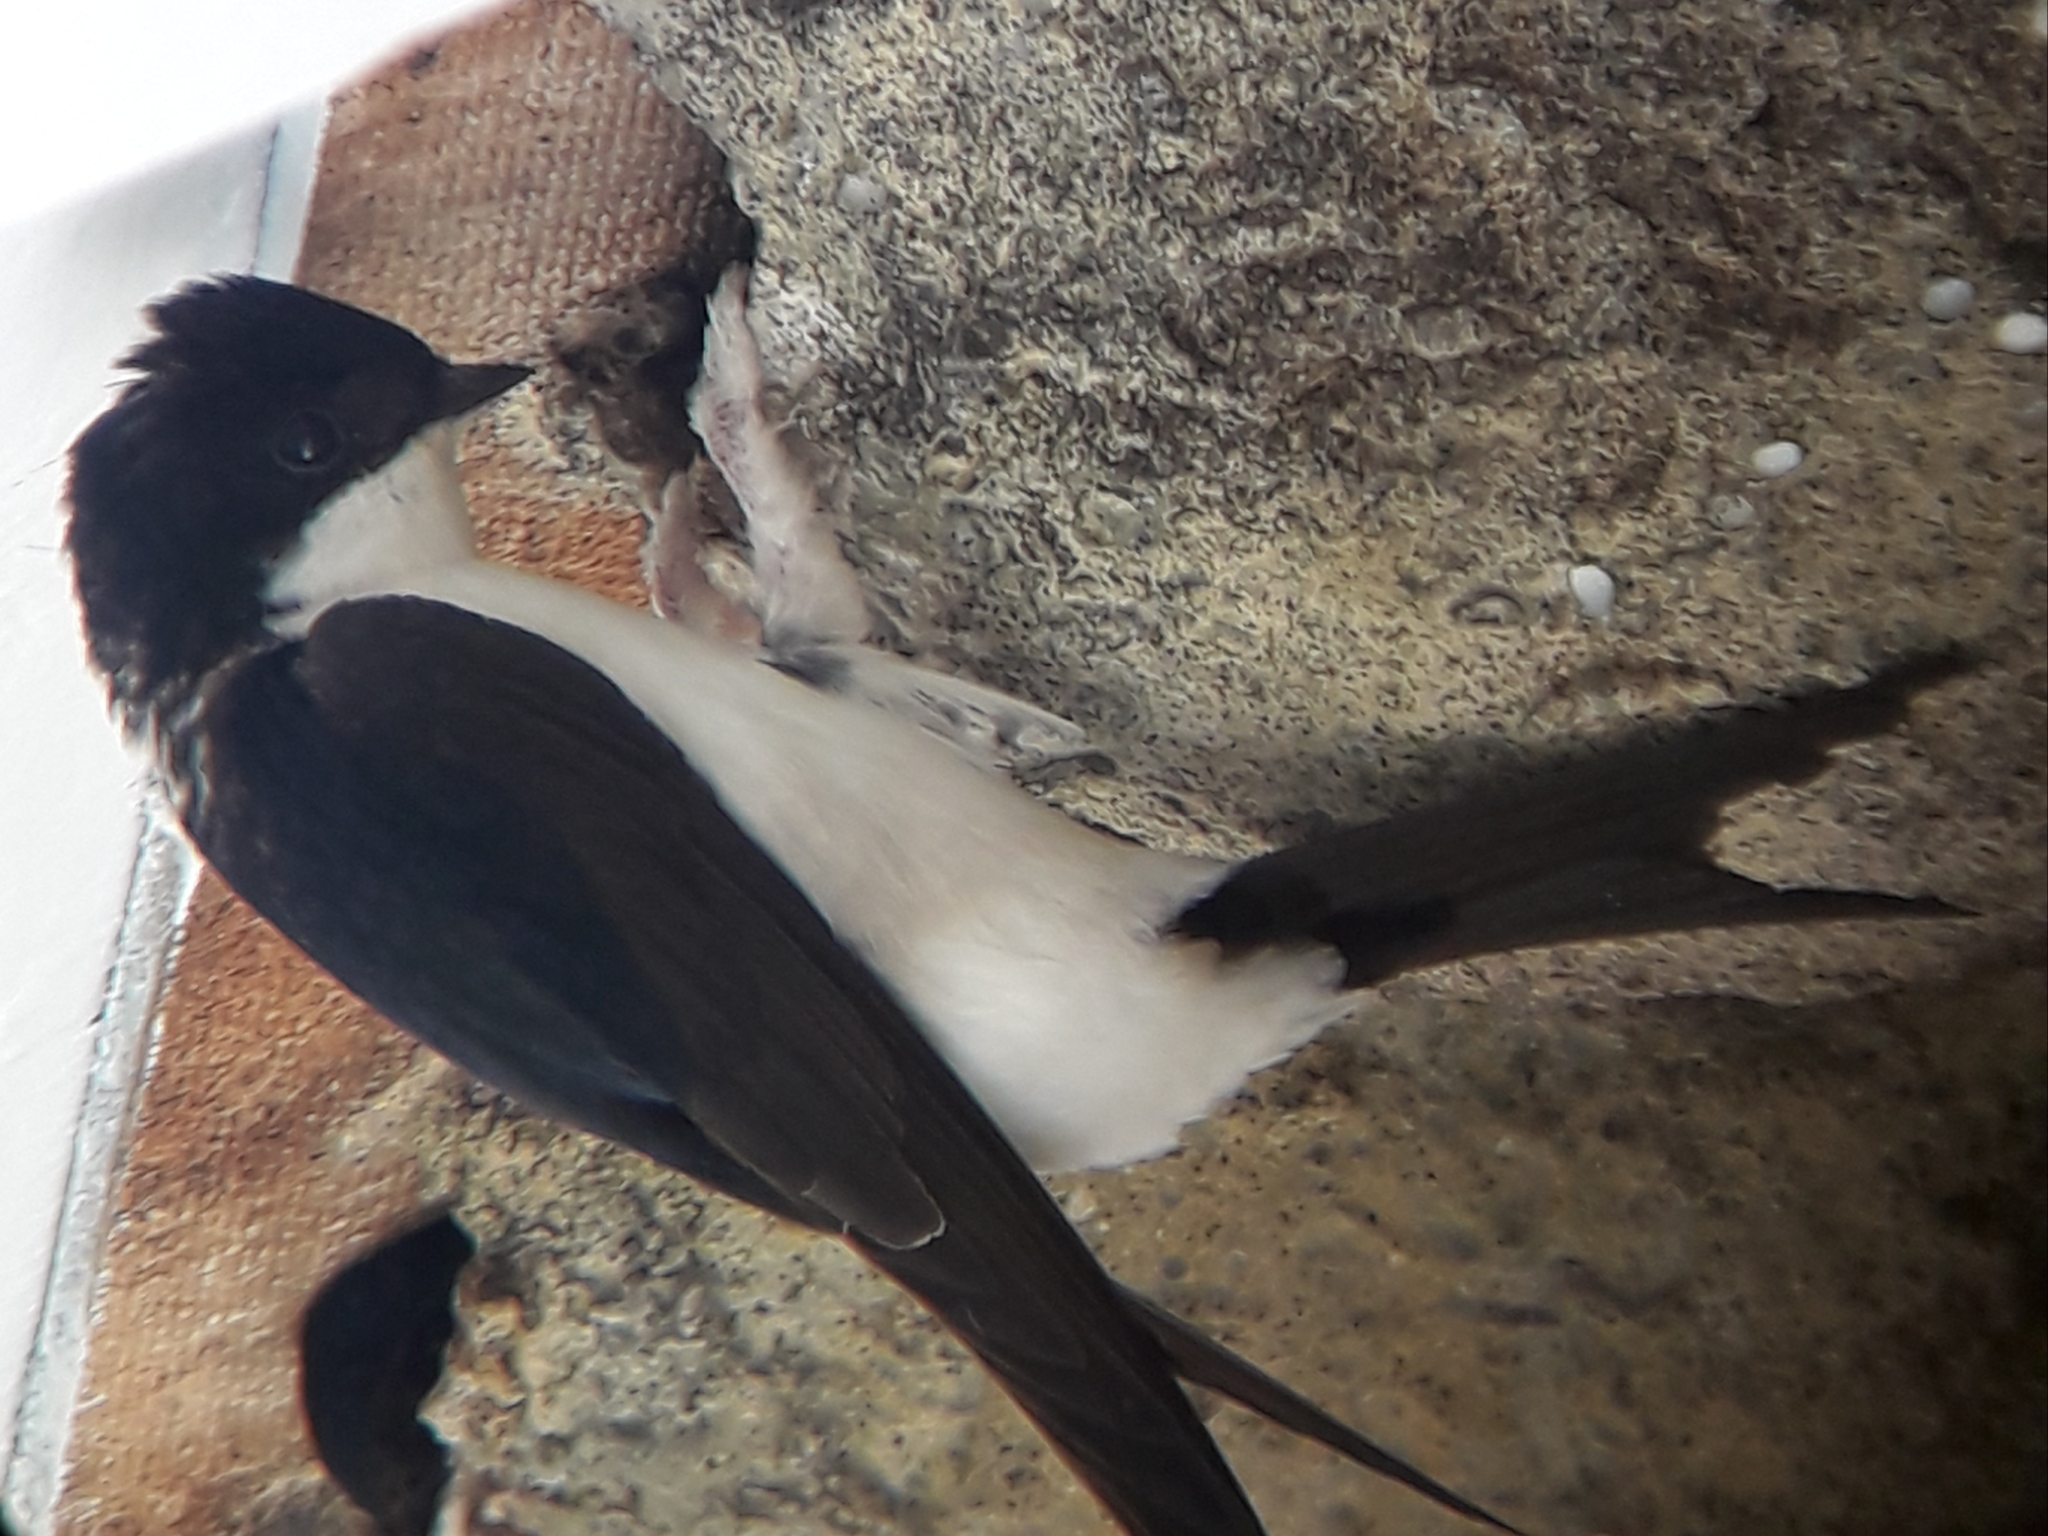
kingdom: Animalia
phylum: Chordata
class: Aves
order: Passeriformes
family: Hirundinidae
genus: Delichon
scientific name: Delichon urbicum
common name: Common house martin
